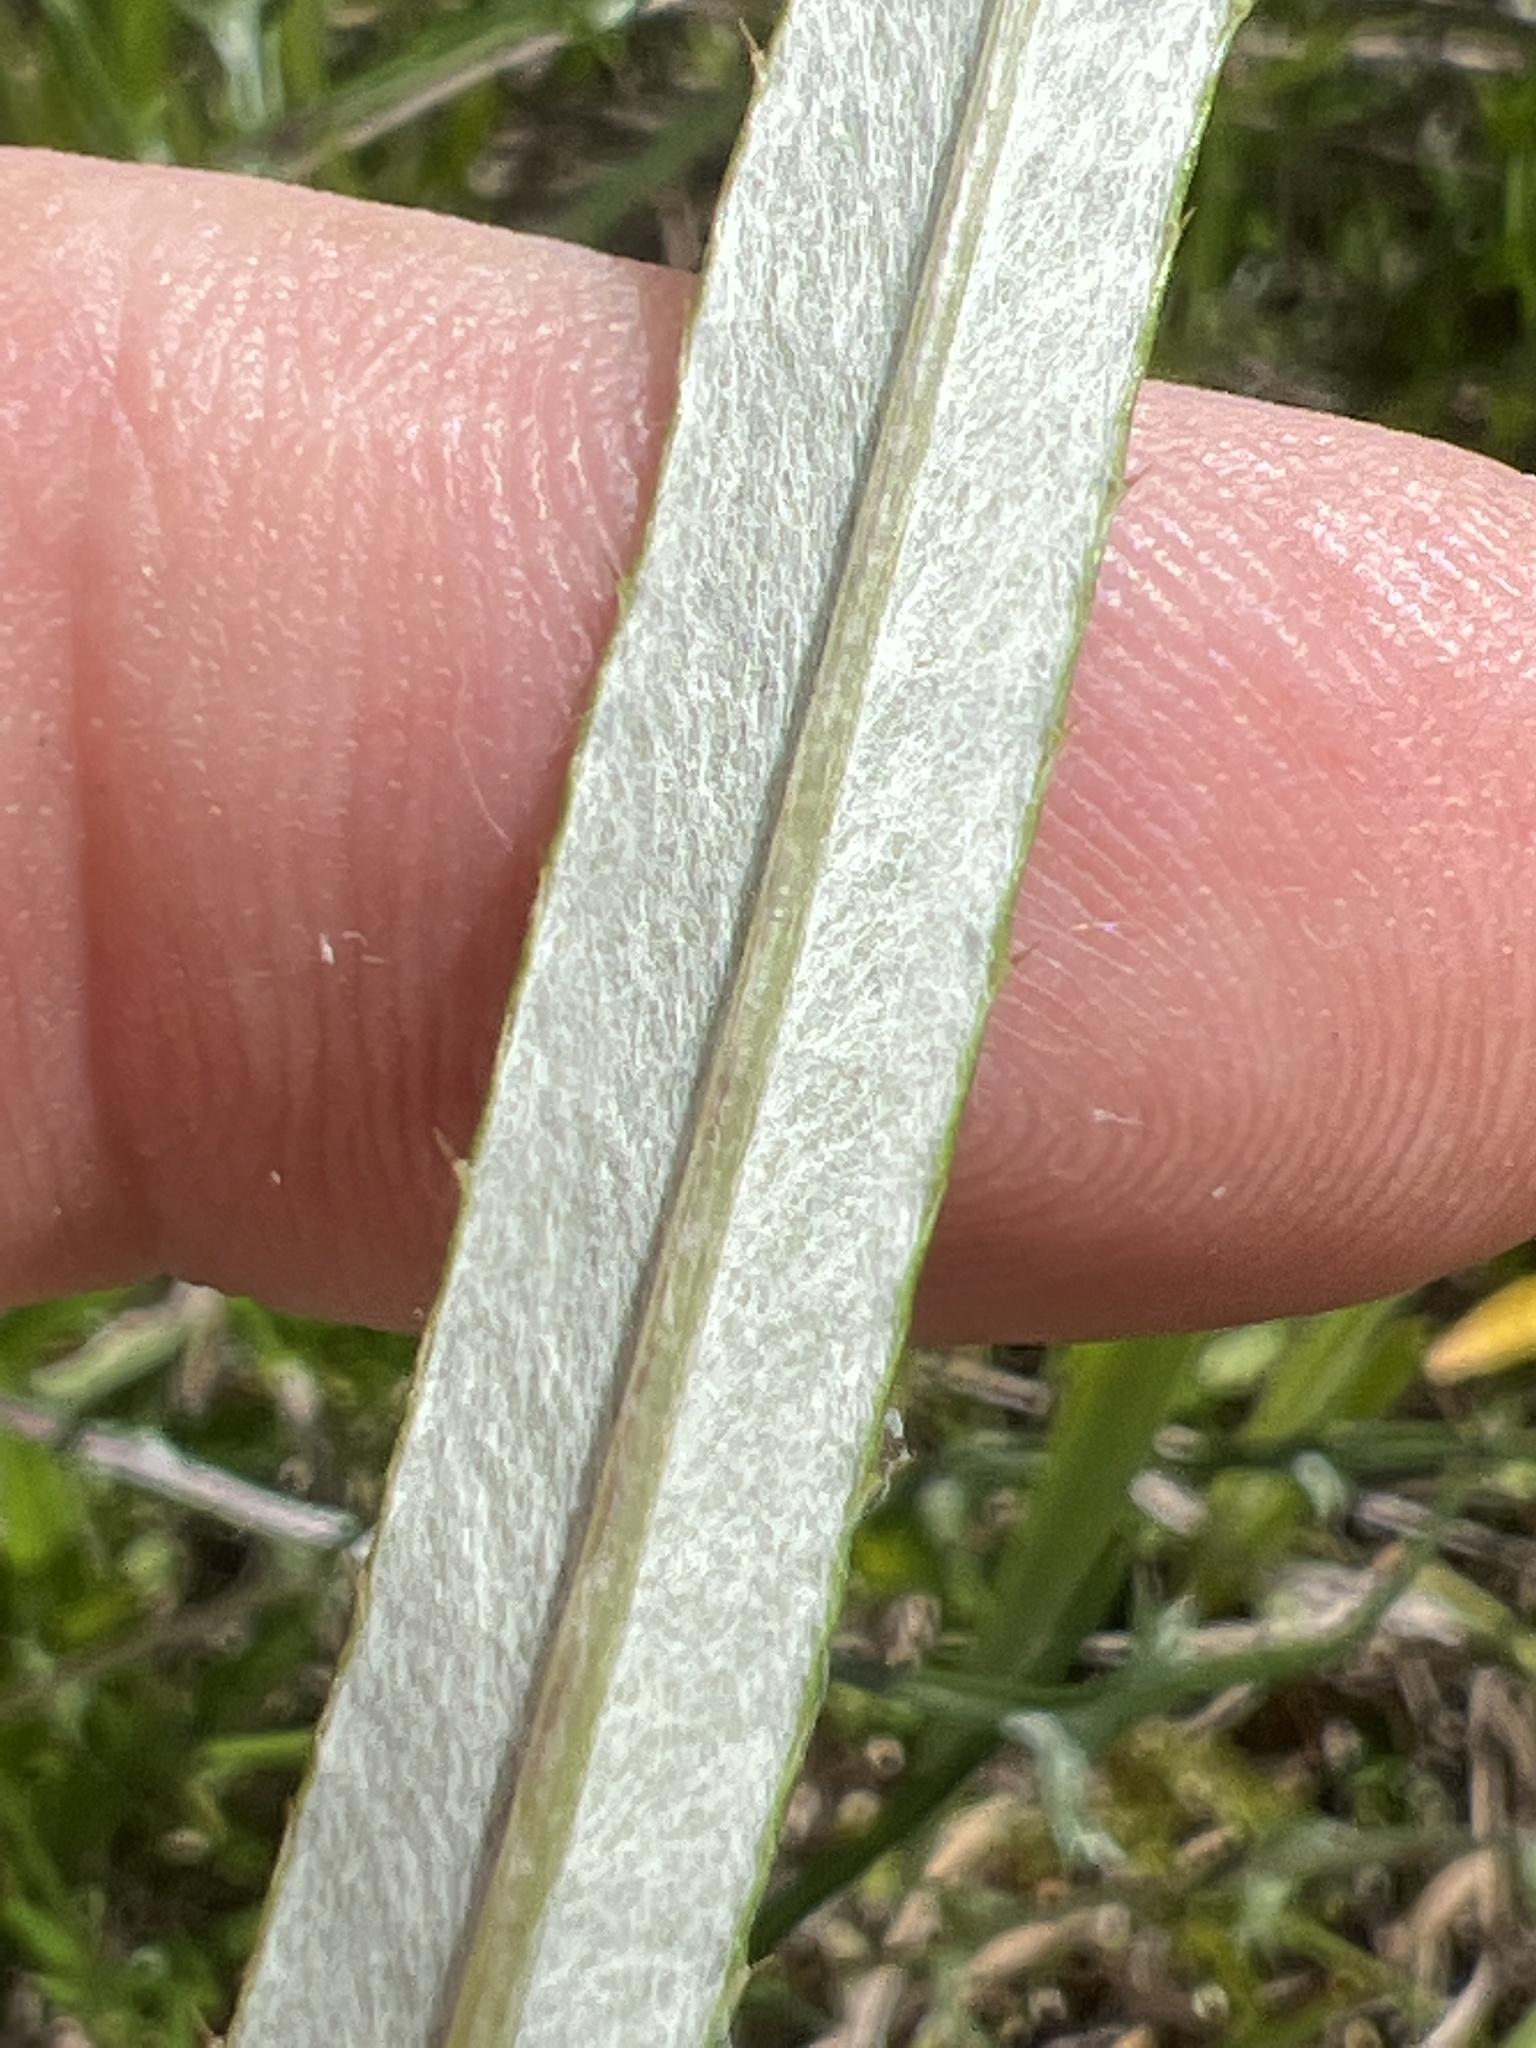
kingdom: Plantae
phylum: Tracheophyta
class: Magnoliopsida
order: Asterales
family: Asteraceae
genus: Cirsium
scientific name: Cirsium virginianum
